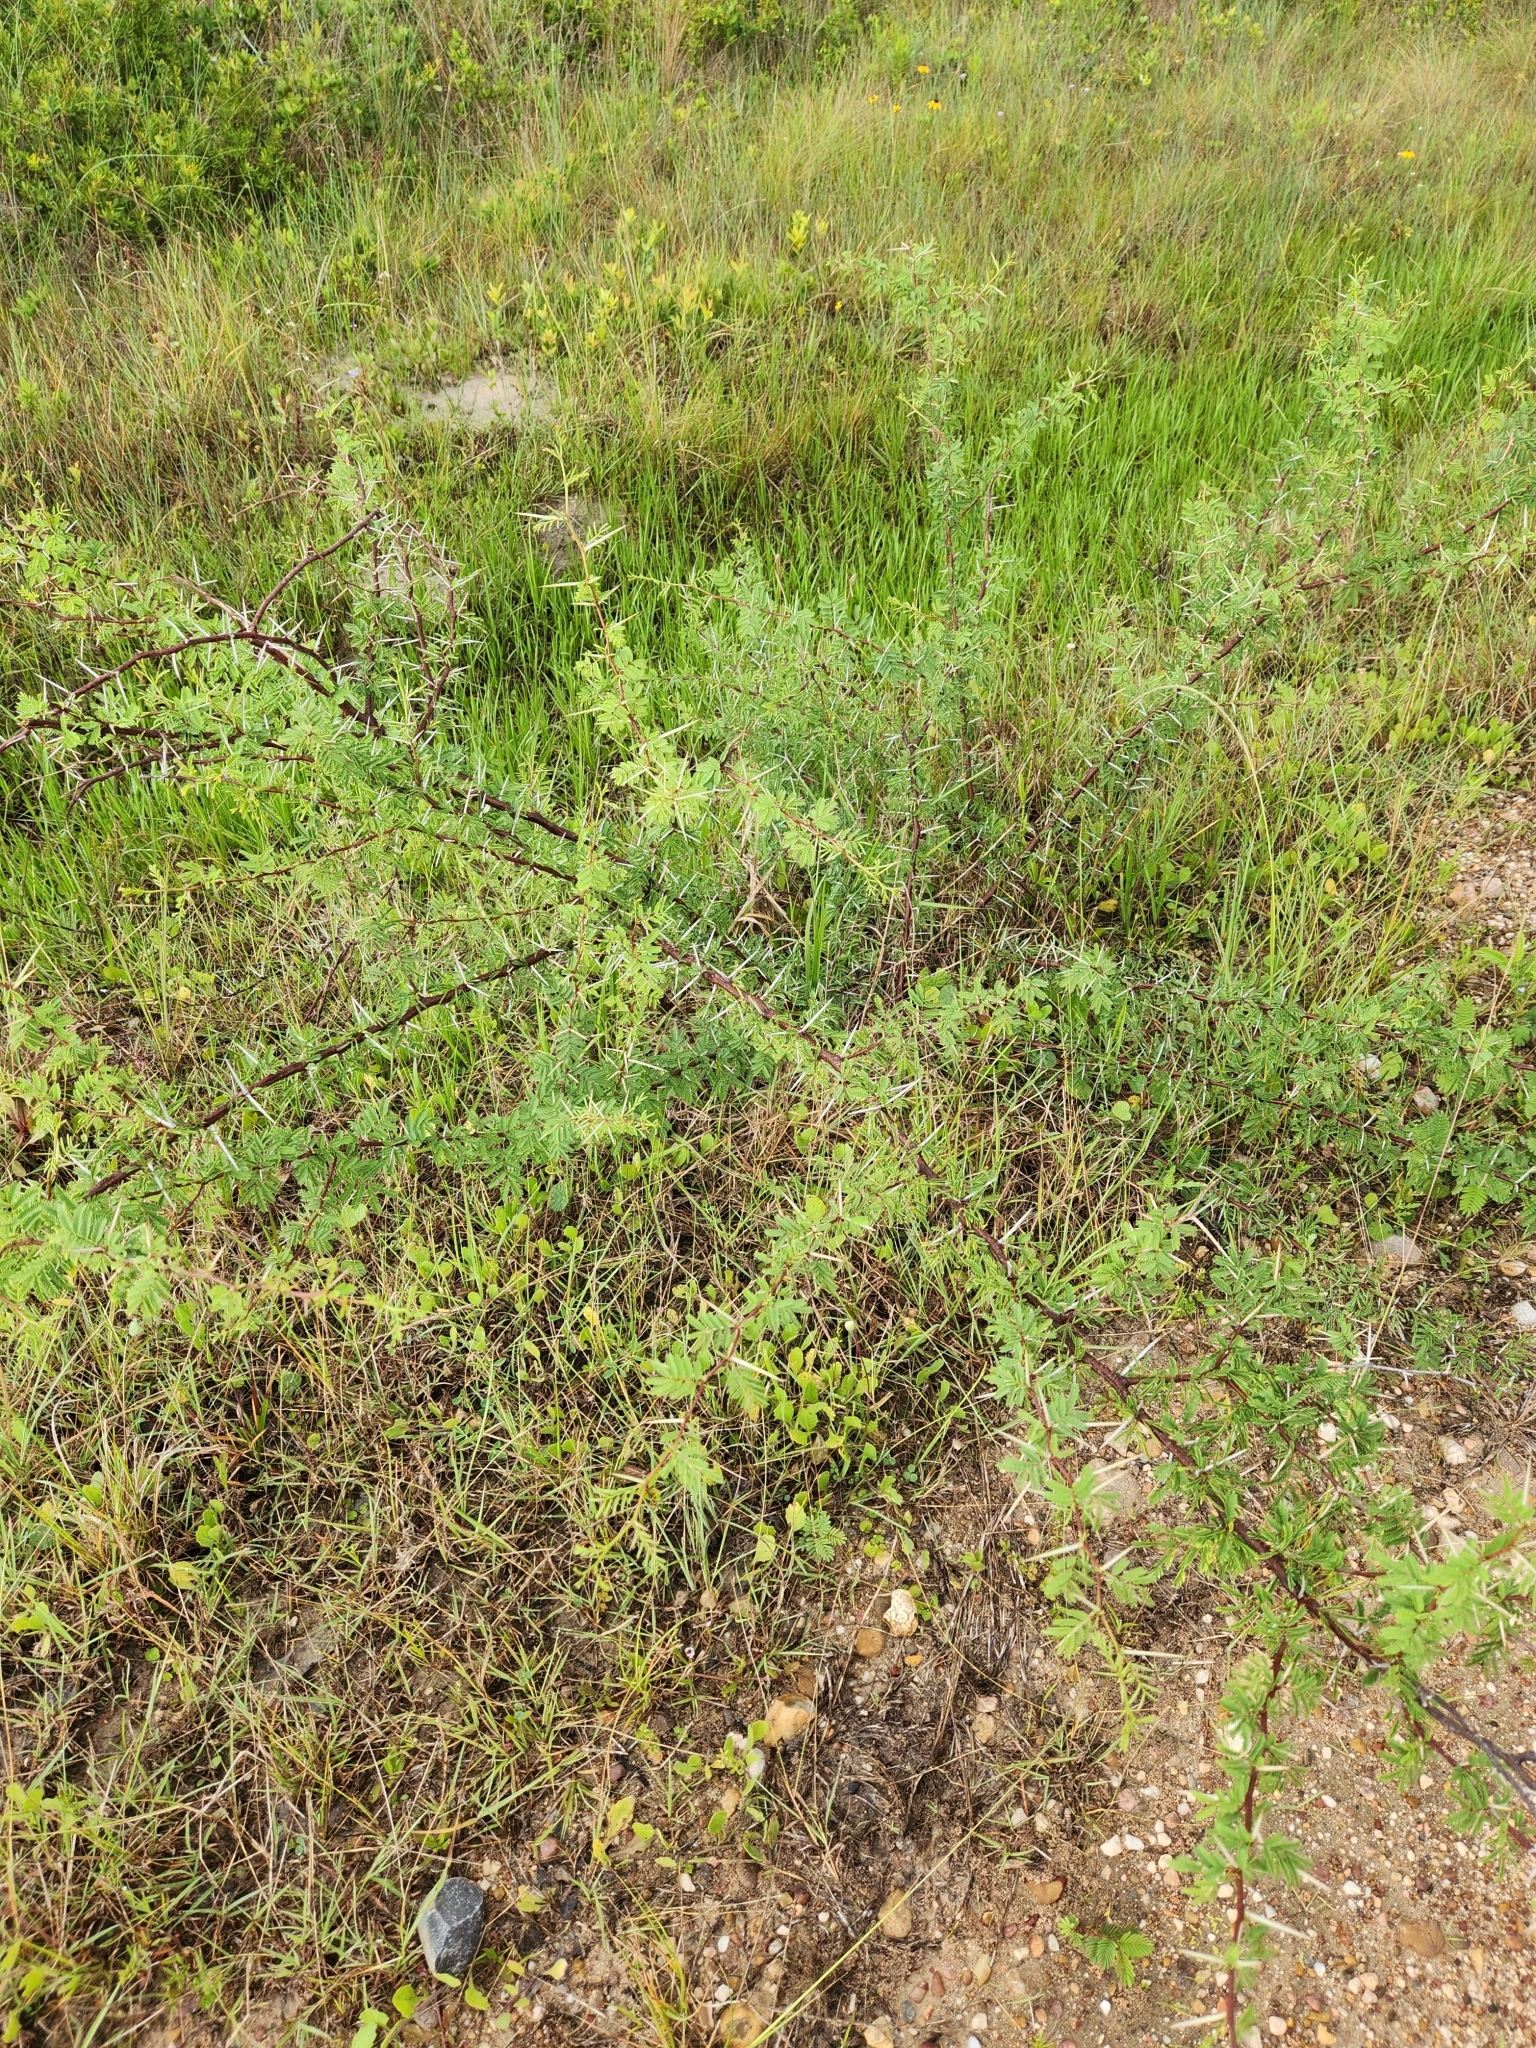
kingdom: Plantae
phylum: Tracheophyta
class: Magnoliopsida
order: Fabales
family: Fabaceae
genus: Vachellia
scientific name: Vachellia farnesiana
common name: Sweet acacia
